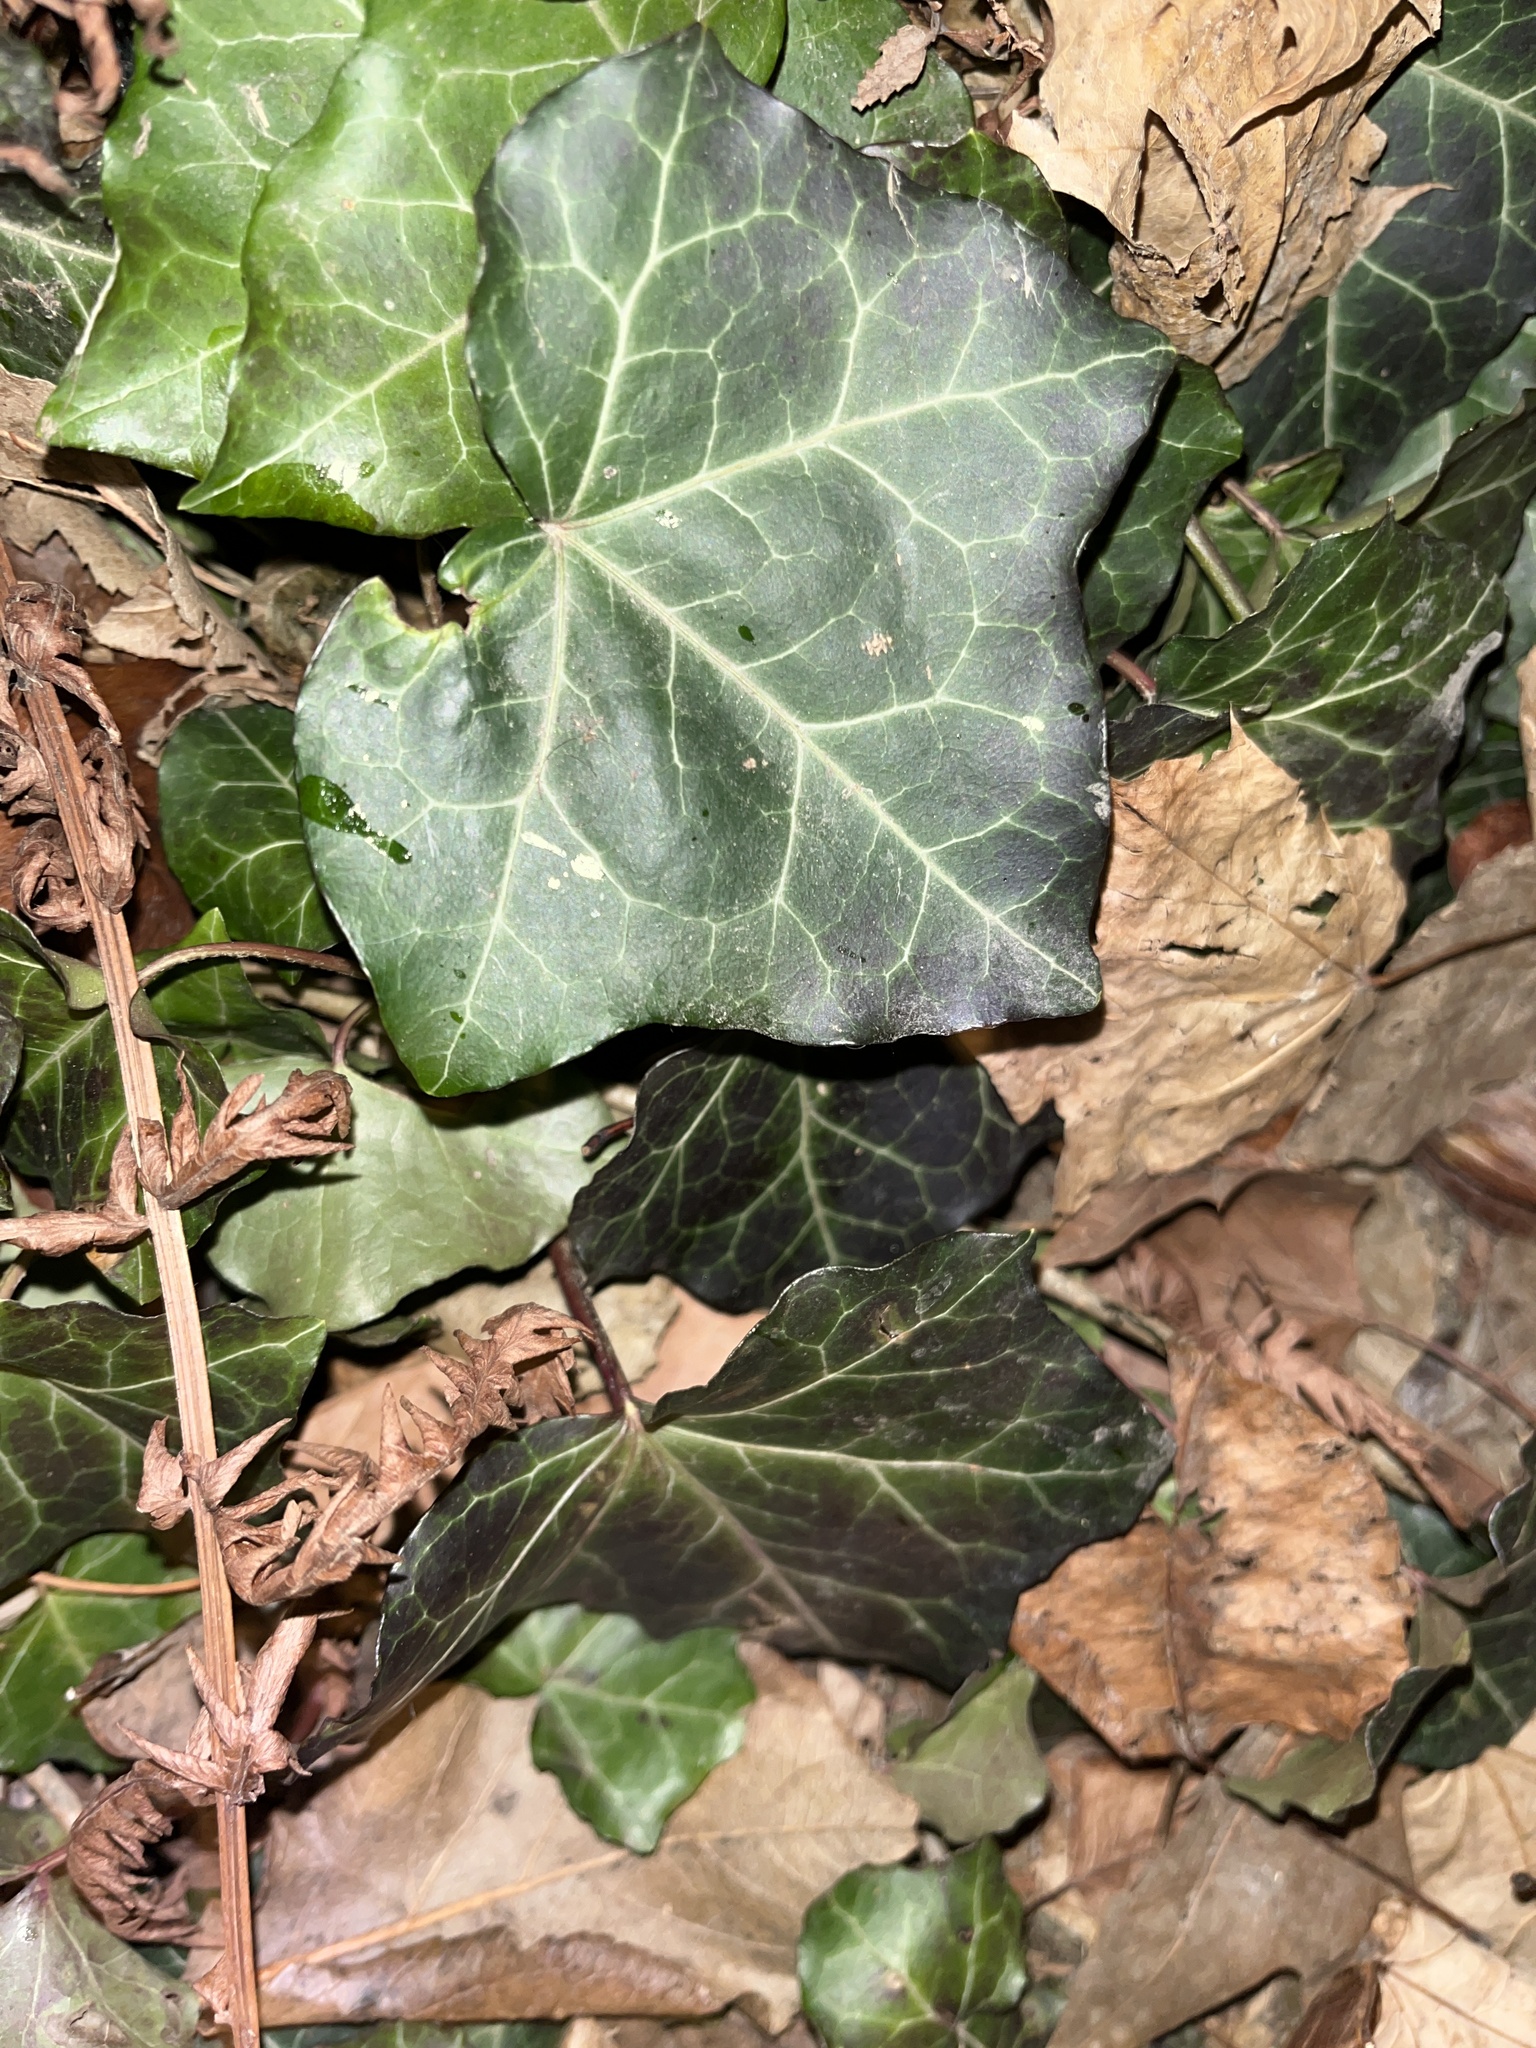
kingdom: Plantae
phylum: Tracheophyta
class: Magnoliopsida
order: Apiales
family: Araliaceae
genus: Hedera
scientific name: Hedera helix
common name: Ivy
